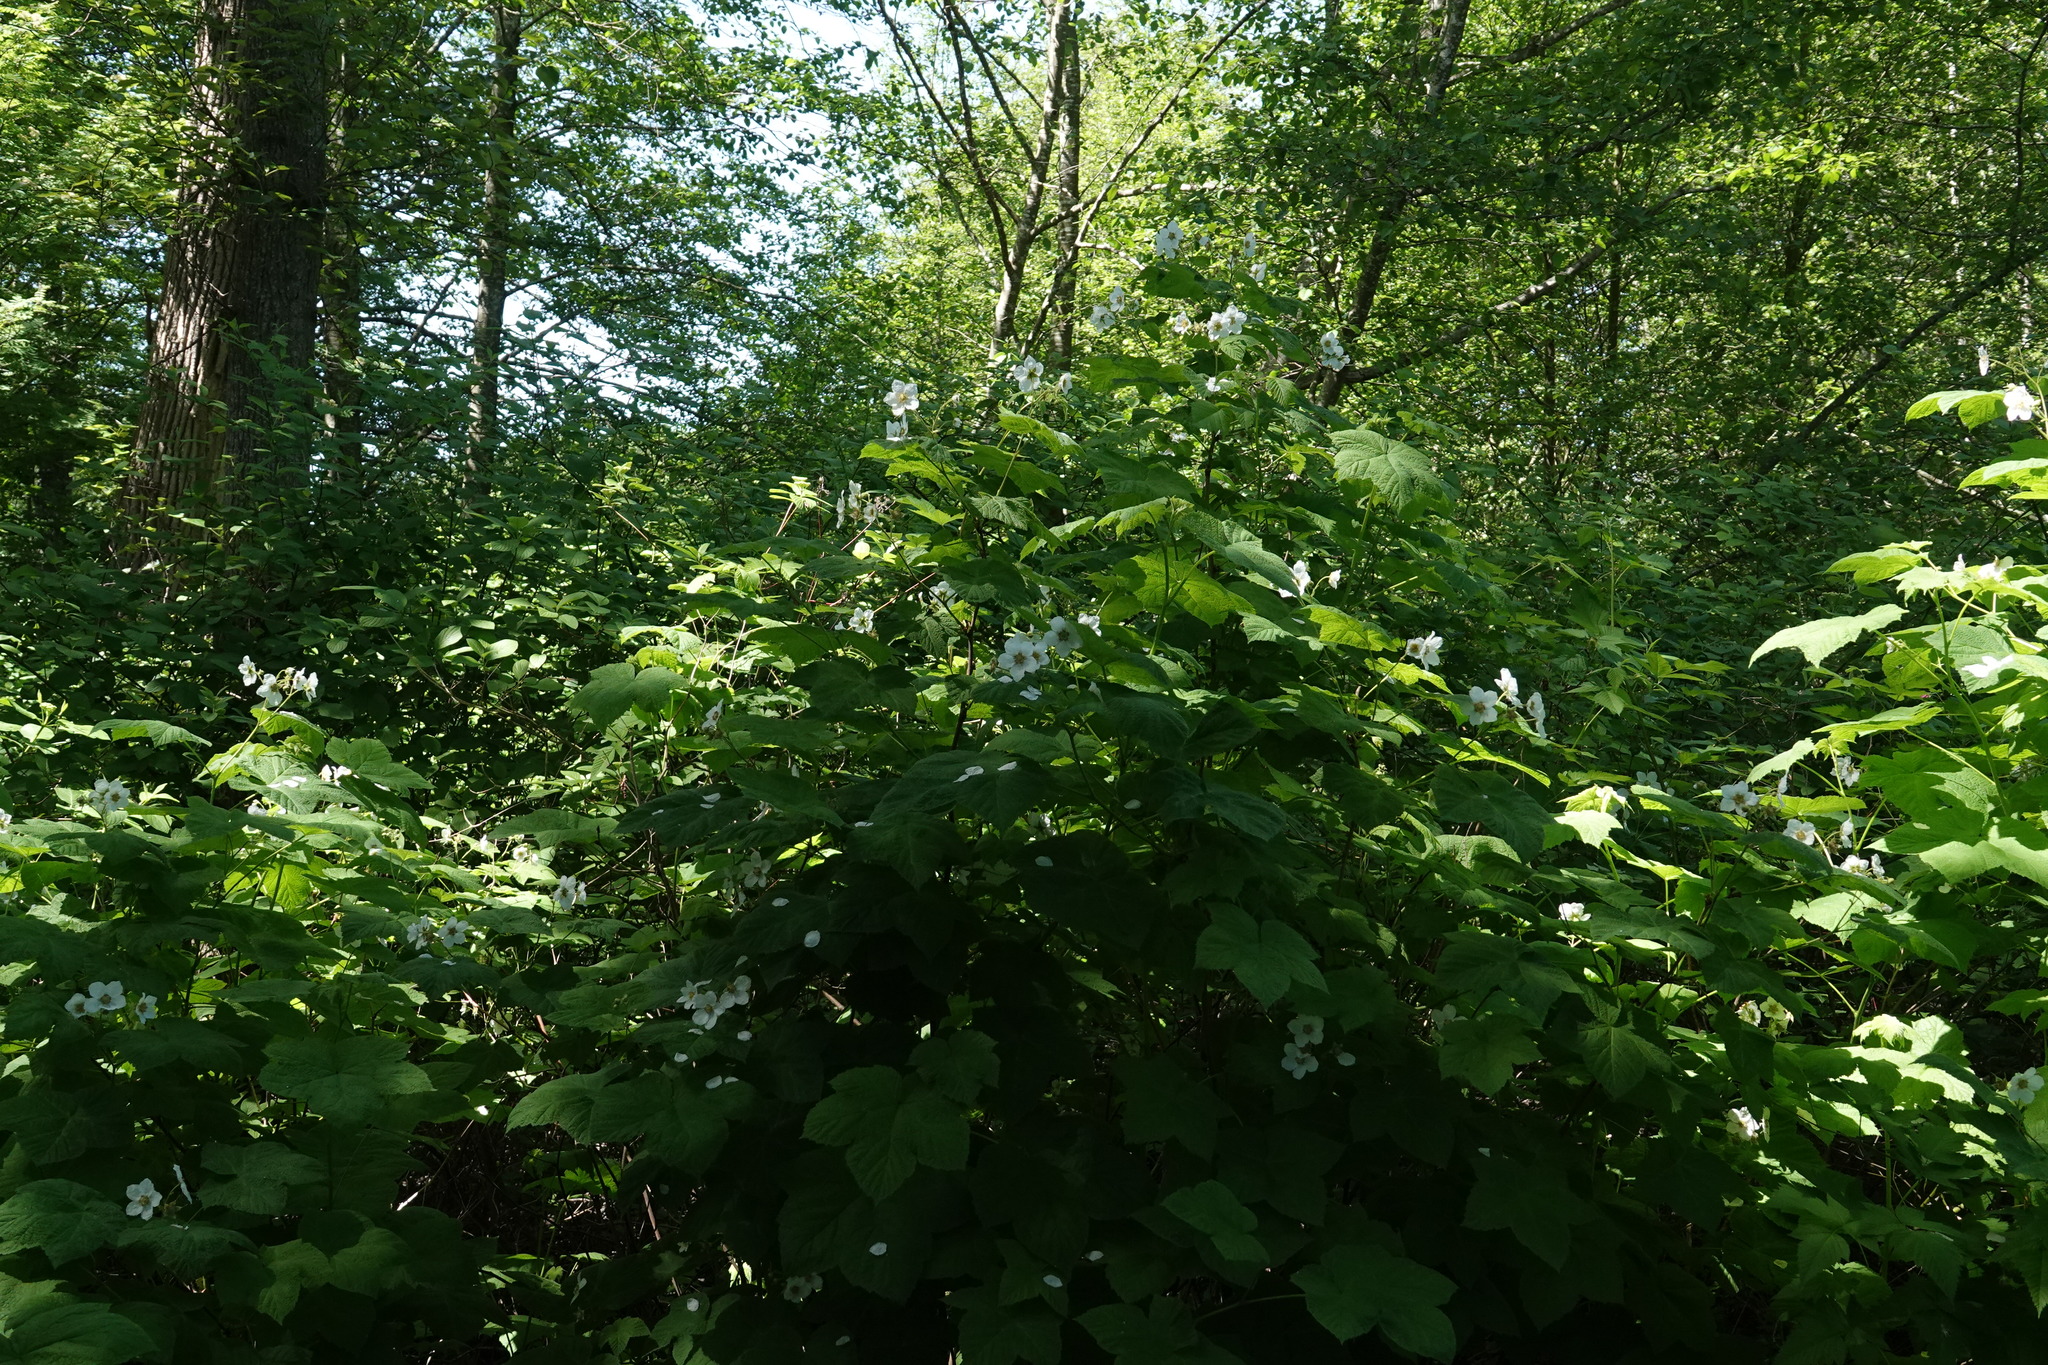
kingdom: Plantae
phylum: Tracheophyta
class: Magnoliopsida
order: Rosales
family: Rosaceae
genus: Rubus
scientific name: Rubus parviflorus
